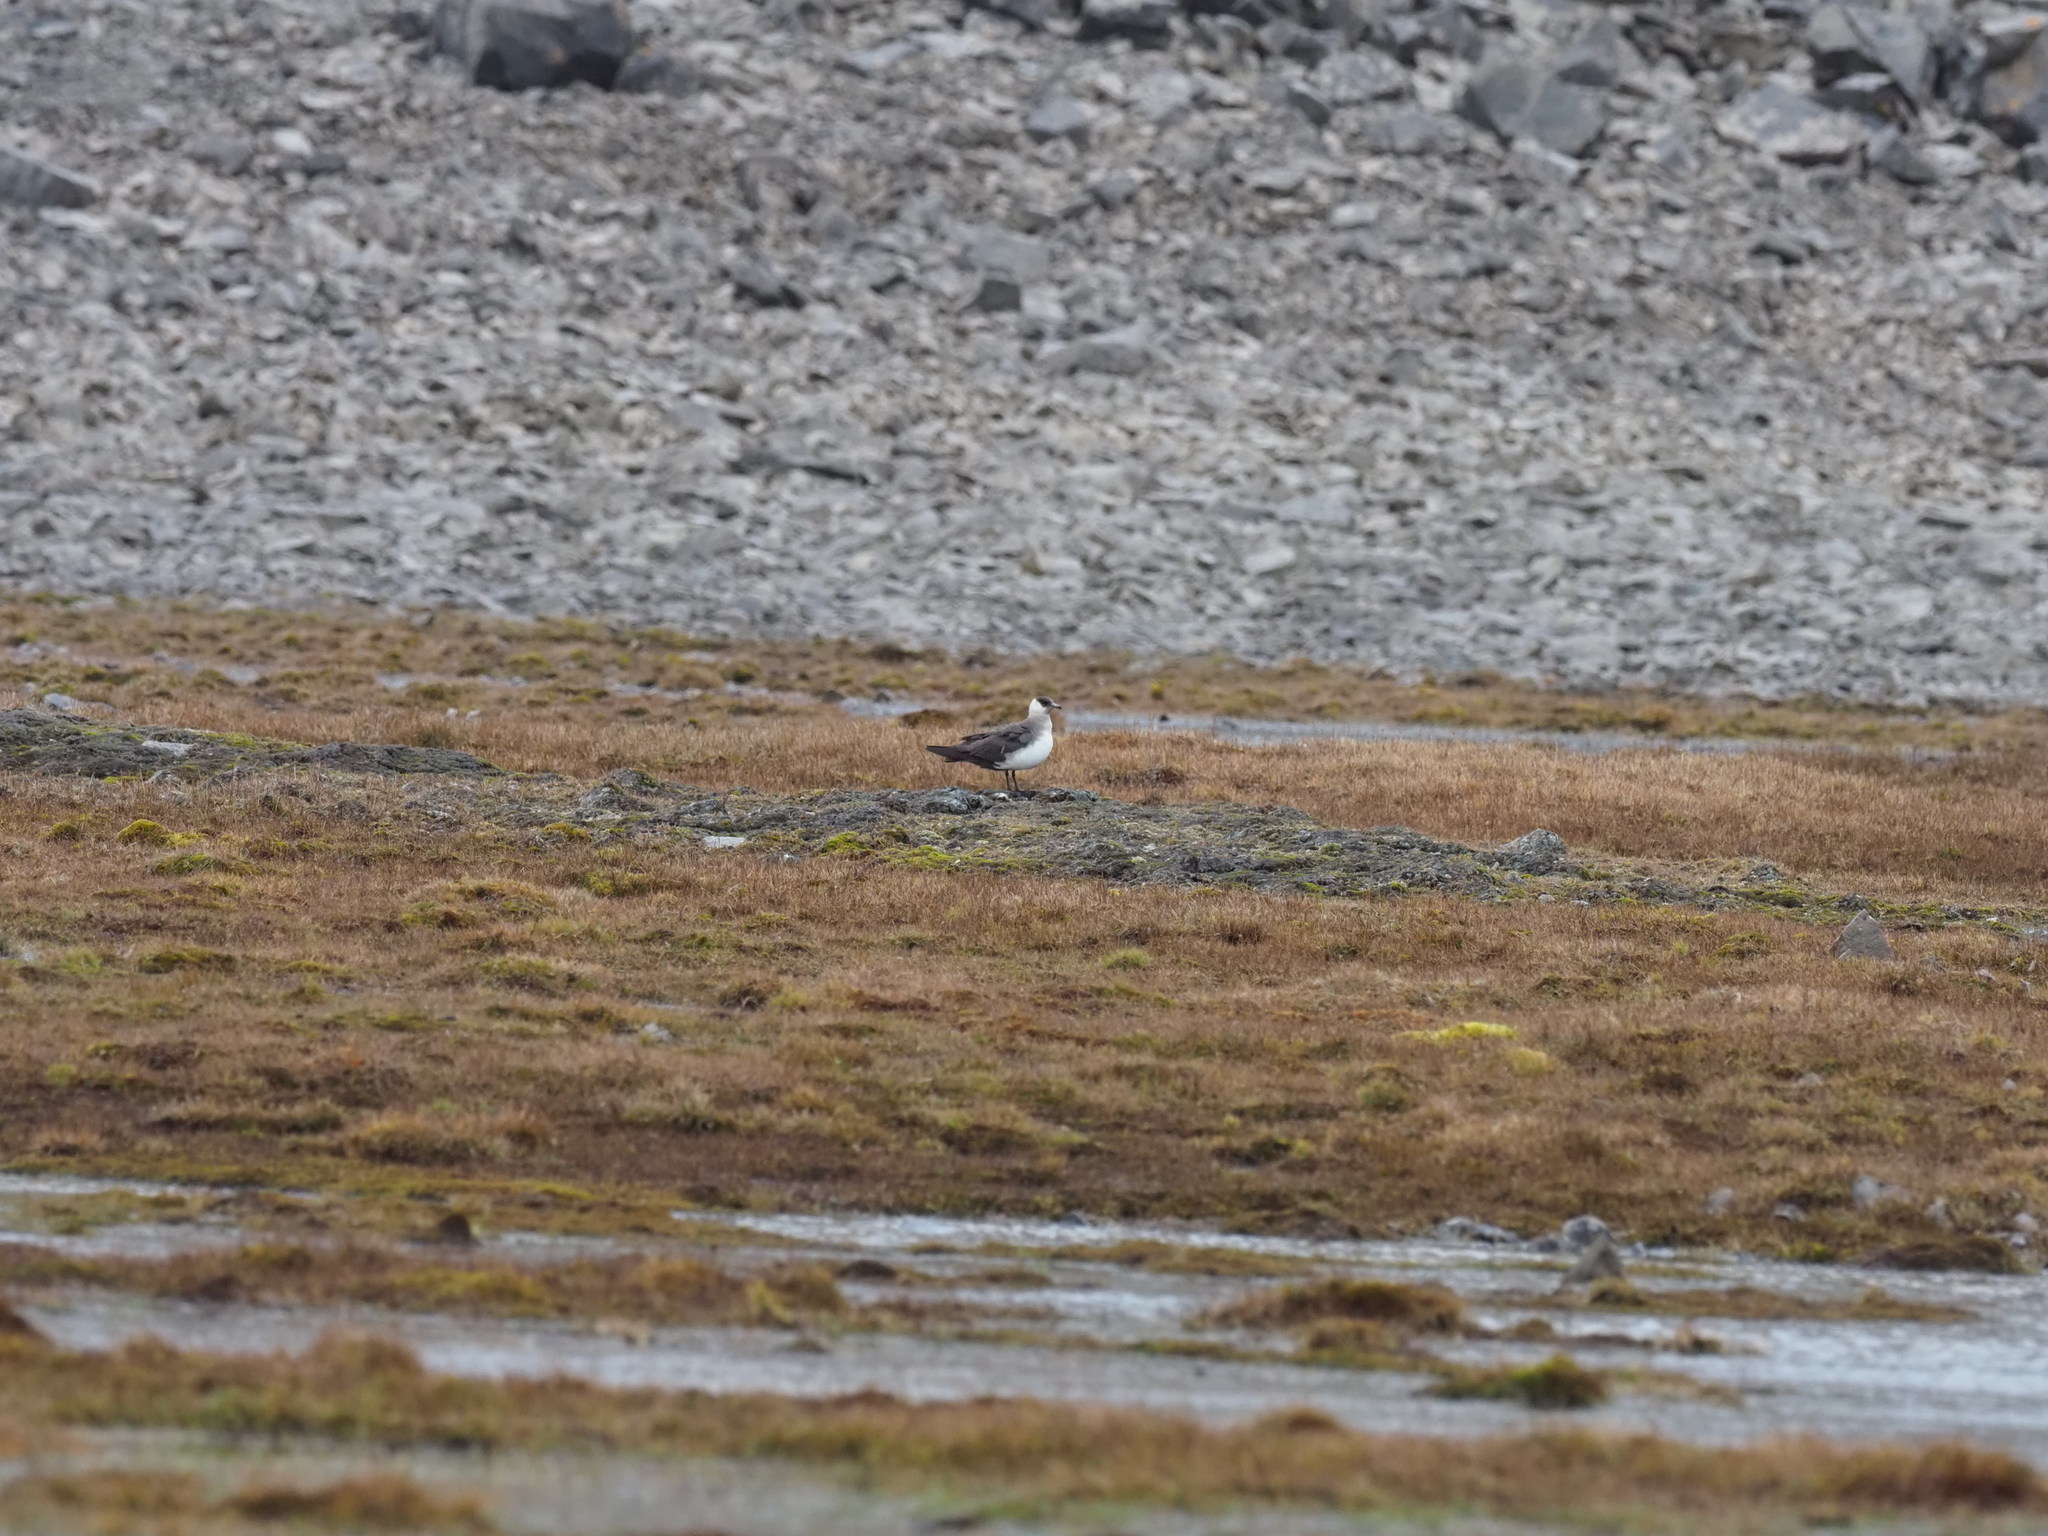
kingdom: Animalia
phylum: Chordata
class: Aves
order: Charadriiformes
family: Stercorariidae
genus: Stercorarius
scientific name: Stercorarius parasiticus
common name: Parasitic jaeger
